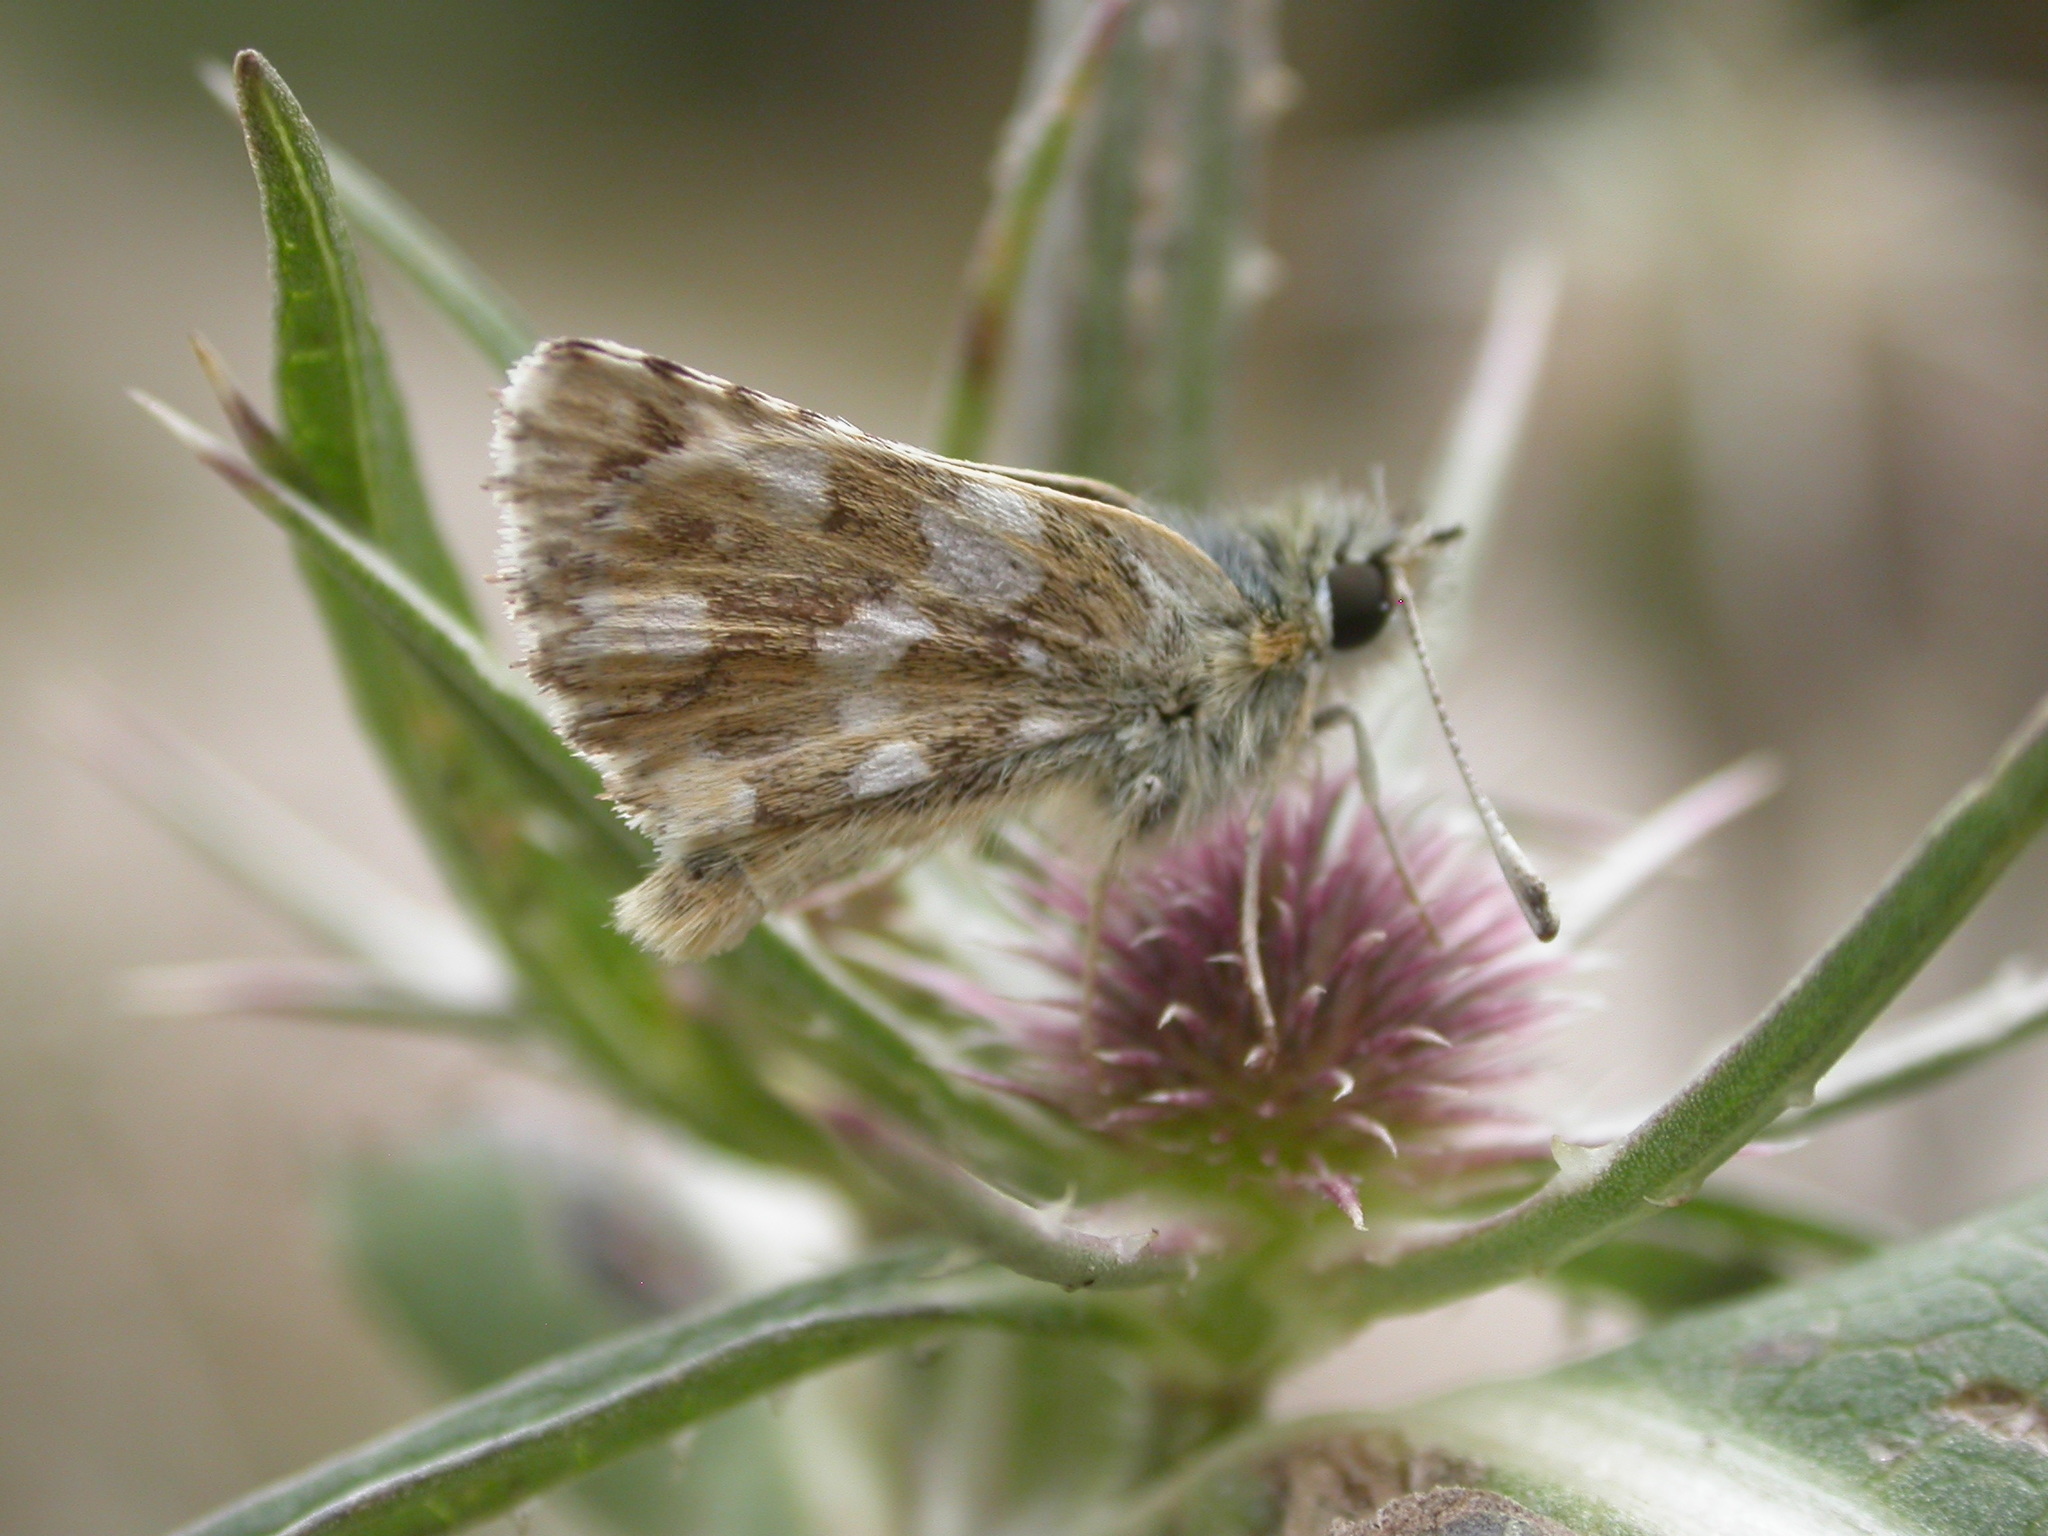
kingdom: Animalia
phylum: Arthropoda
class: Insecta
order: Lepidoptera
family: Hesperiidae
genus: Spialia
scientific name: Spialia sertorius
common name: Red underwing skipper
